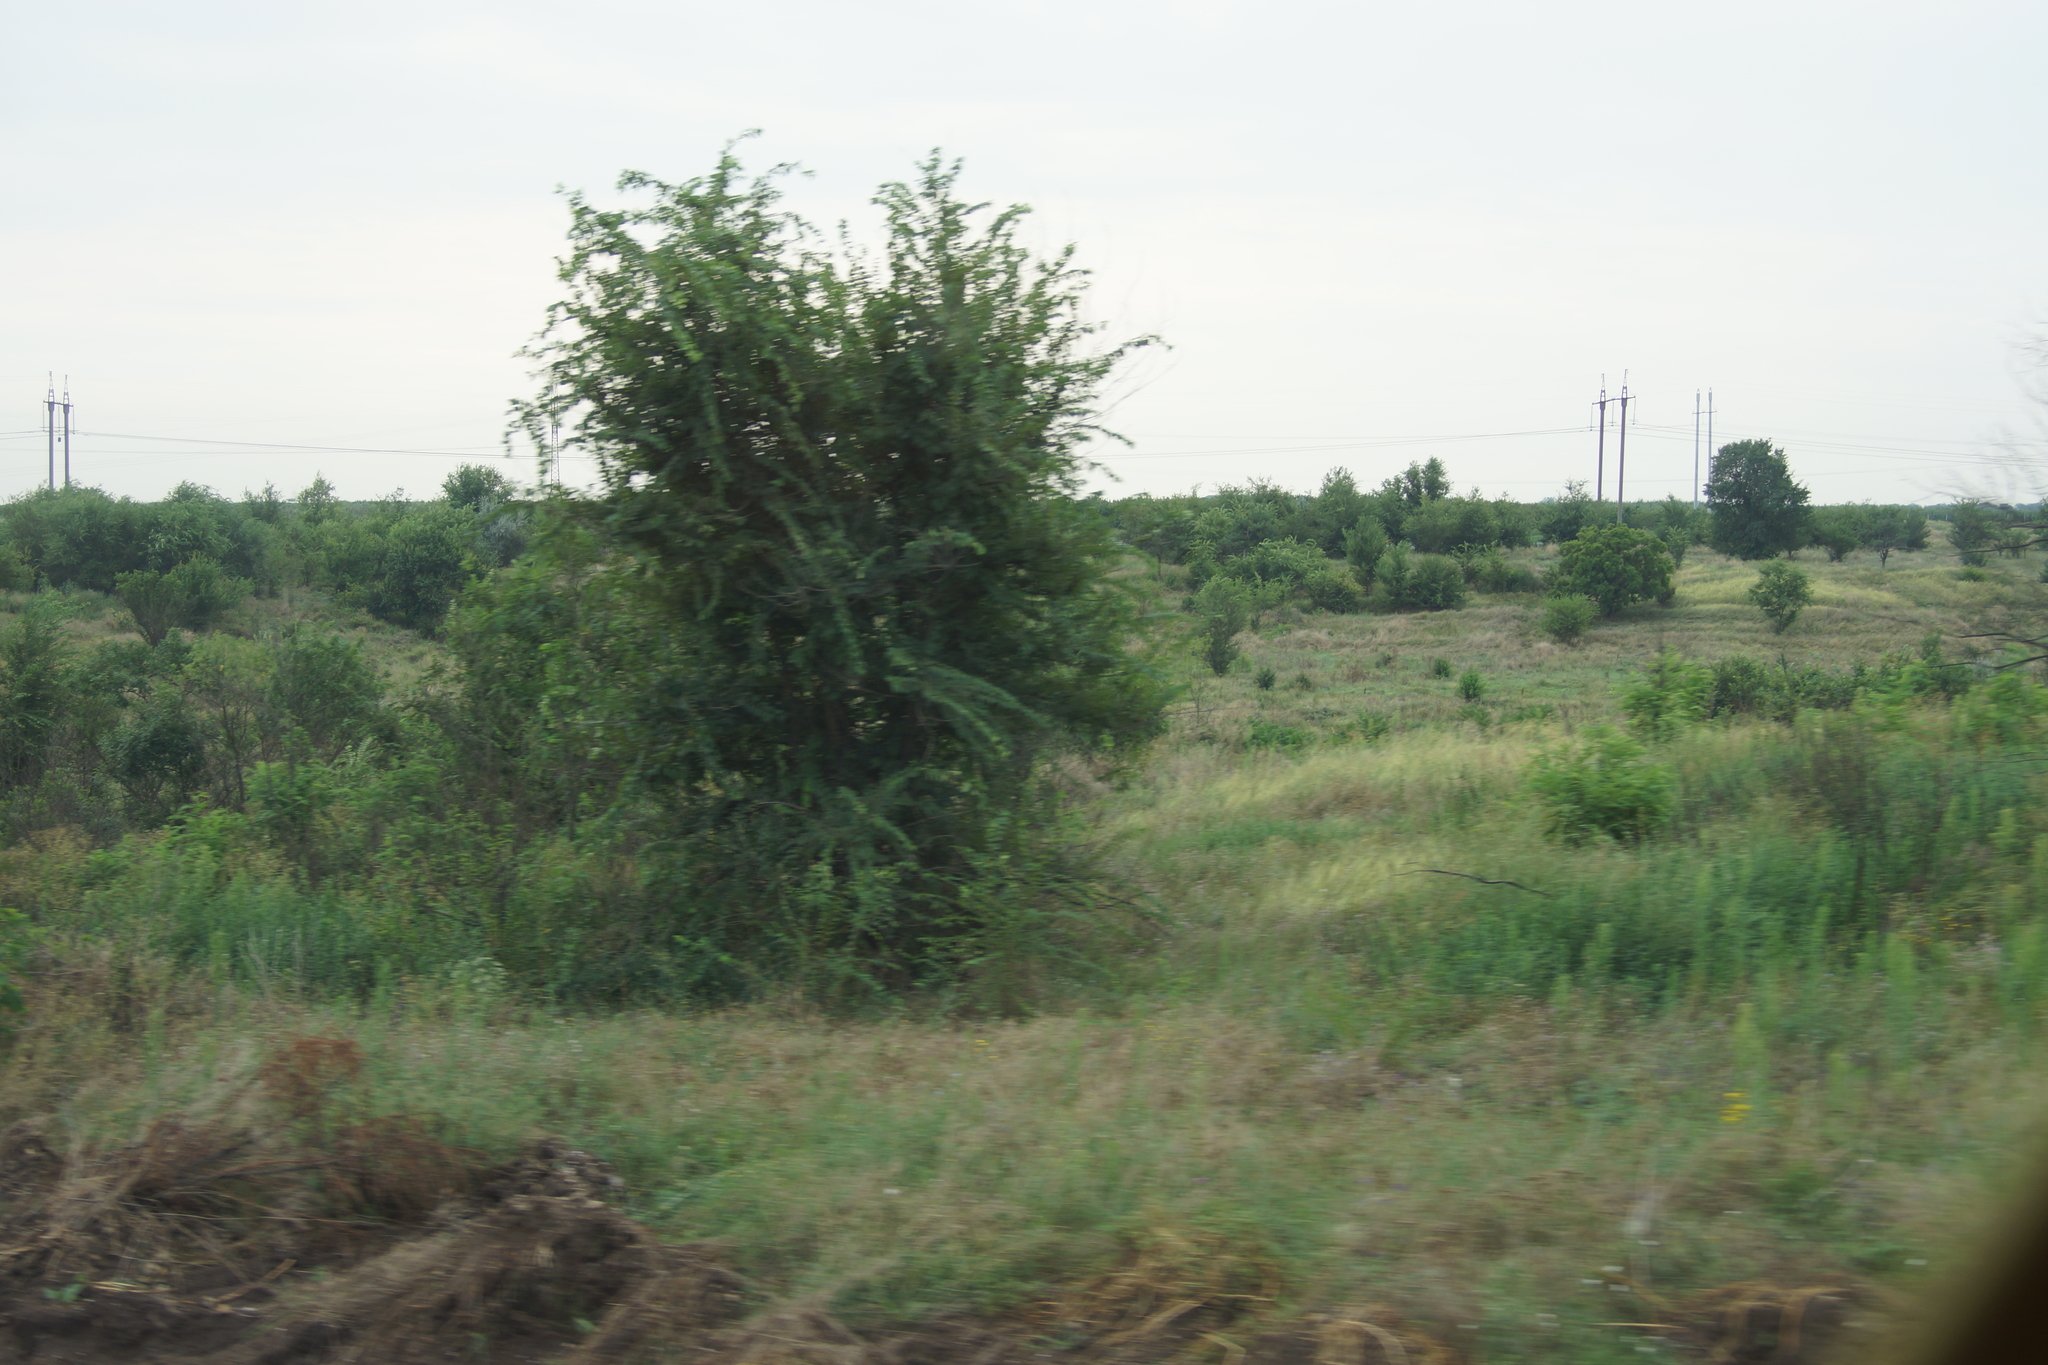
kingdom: Plantae
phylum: Tracheophyta
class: Magnoliopsida
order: Rosales
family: Ulmaceae
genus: Ulmus
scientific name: Ulmus pumila
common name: Siberian elm
